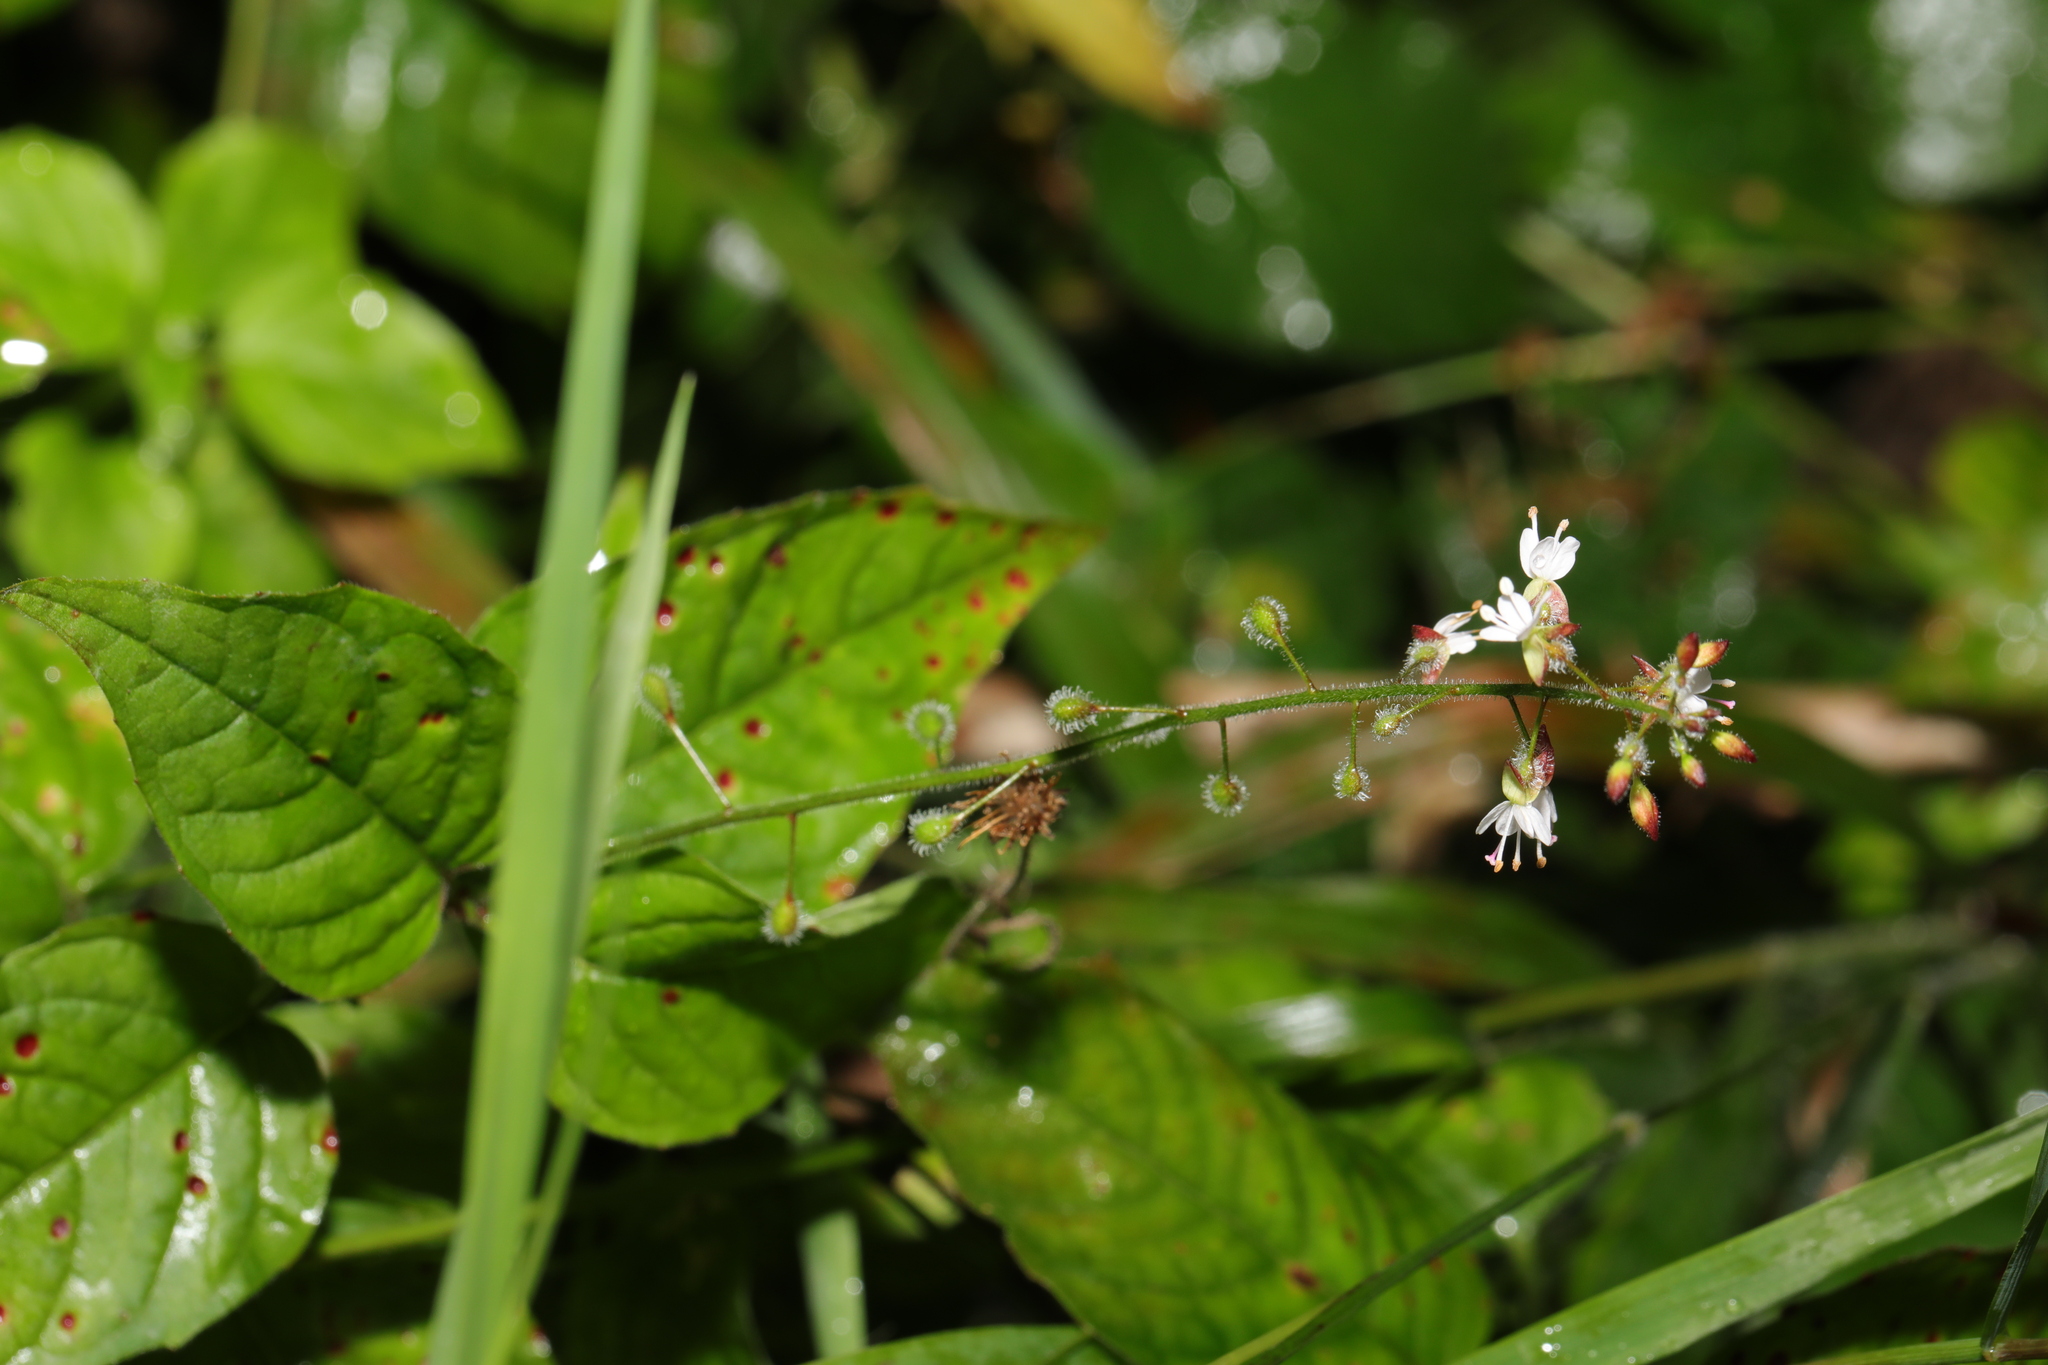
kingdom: Plantae
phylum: Tracheophyta
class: Magnoliopsida
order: Myrtales
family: Onagraceae
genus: Circaea
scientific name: Circaea lutetiana
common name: Enchanter's-nightshade
